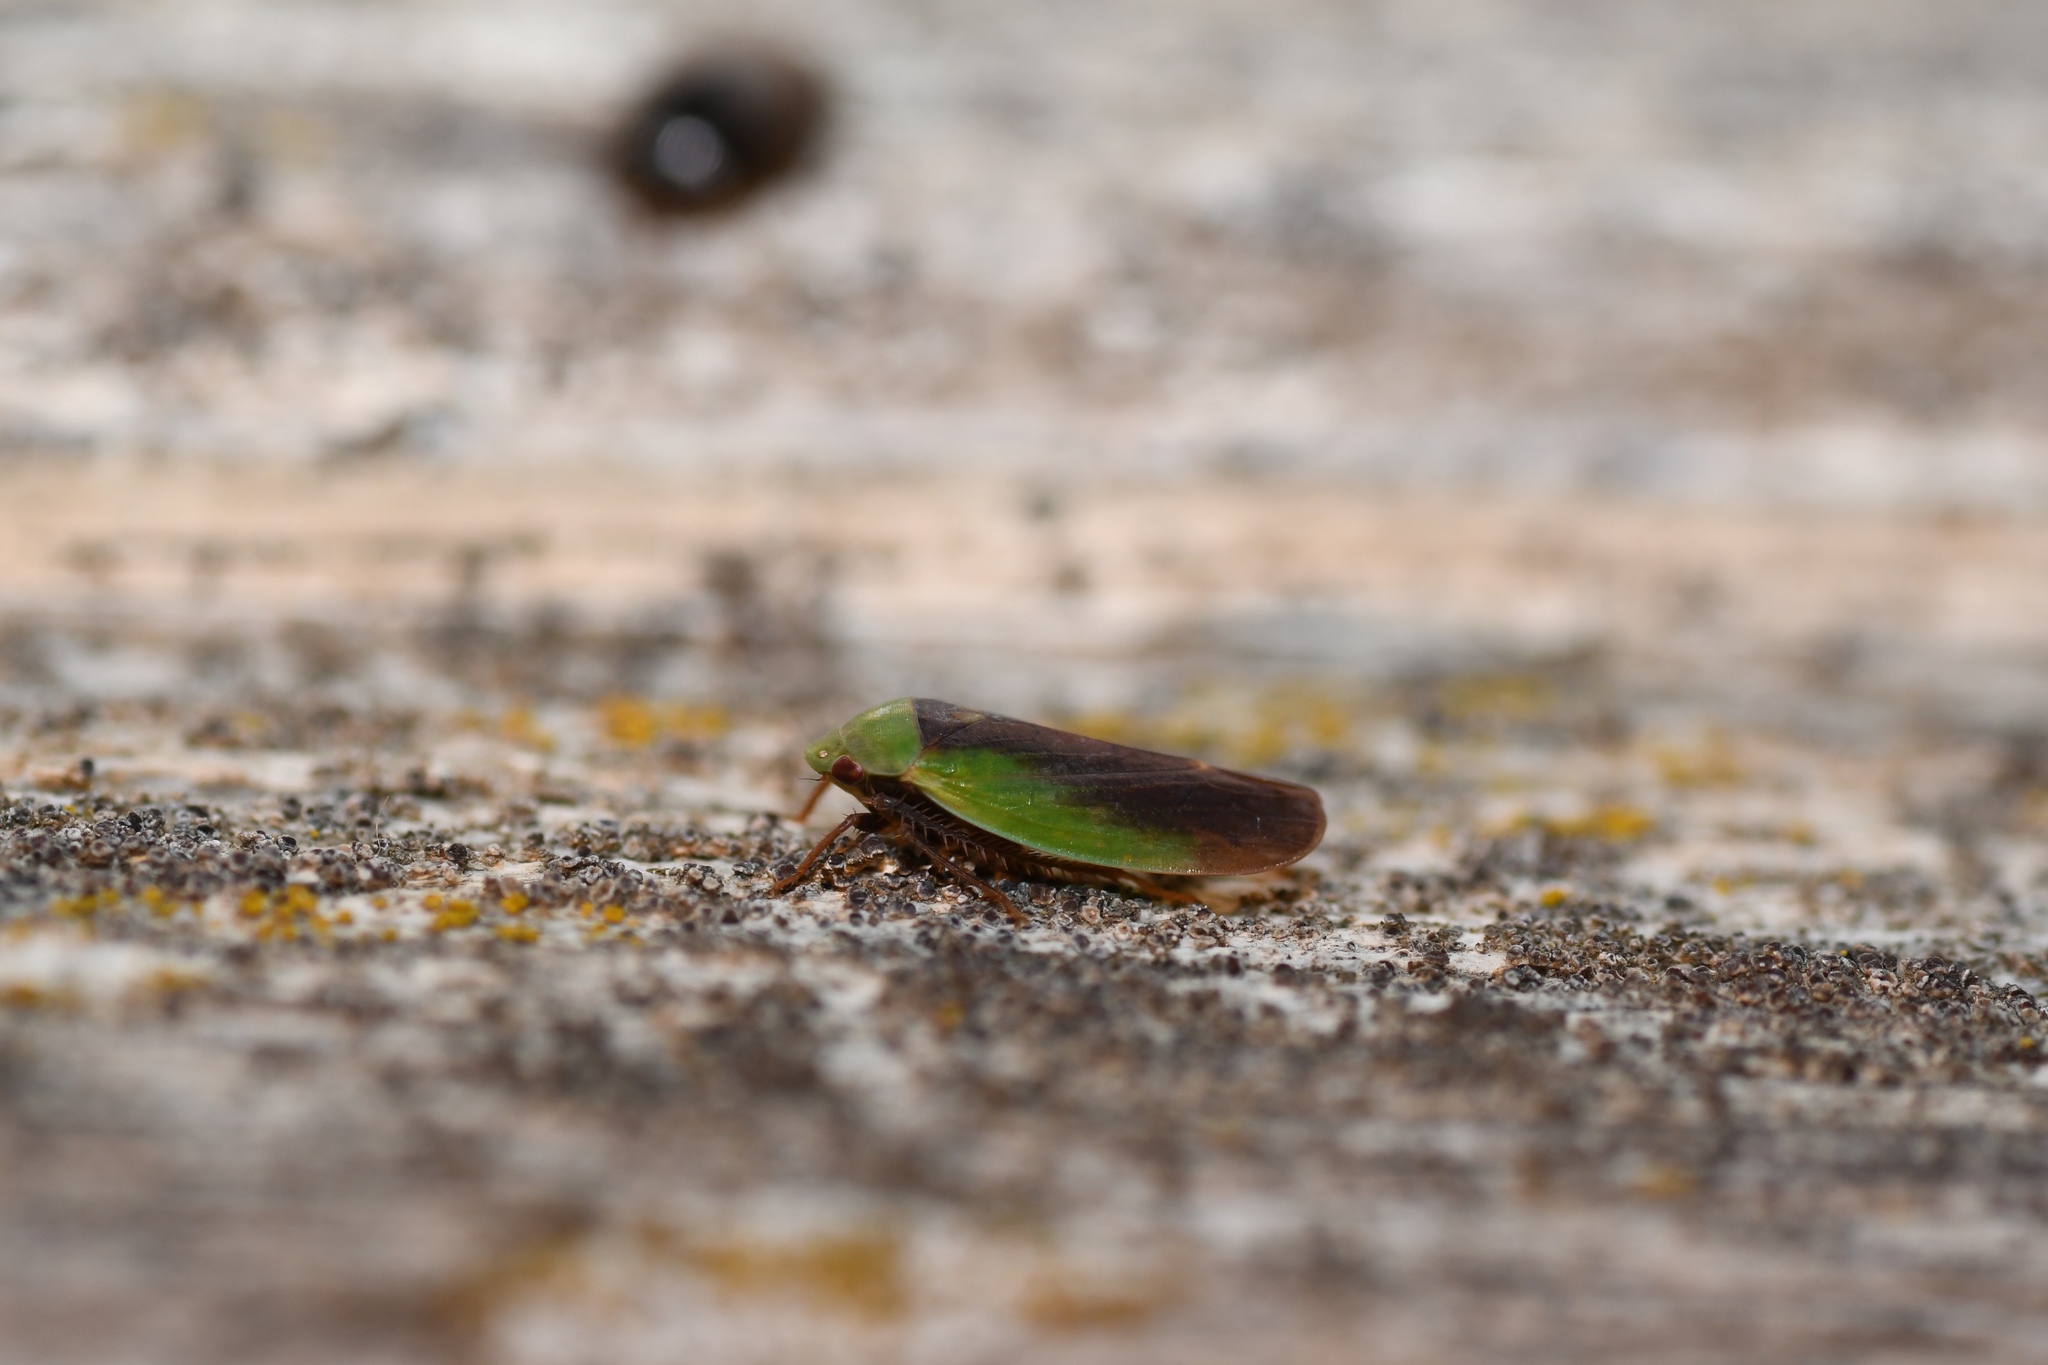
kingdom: Animalia
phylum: Arthropoda
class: Insecta
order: Hemiptera
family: Cicadellidae
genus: Ponana
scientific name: Ponana pectoralis
